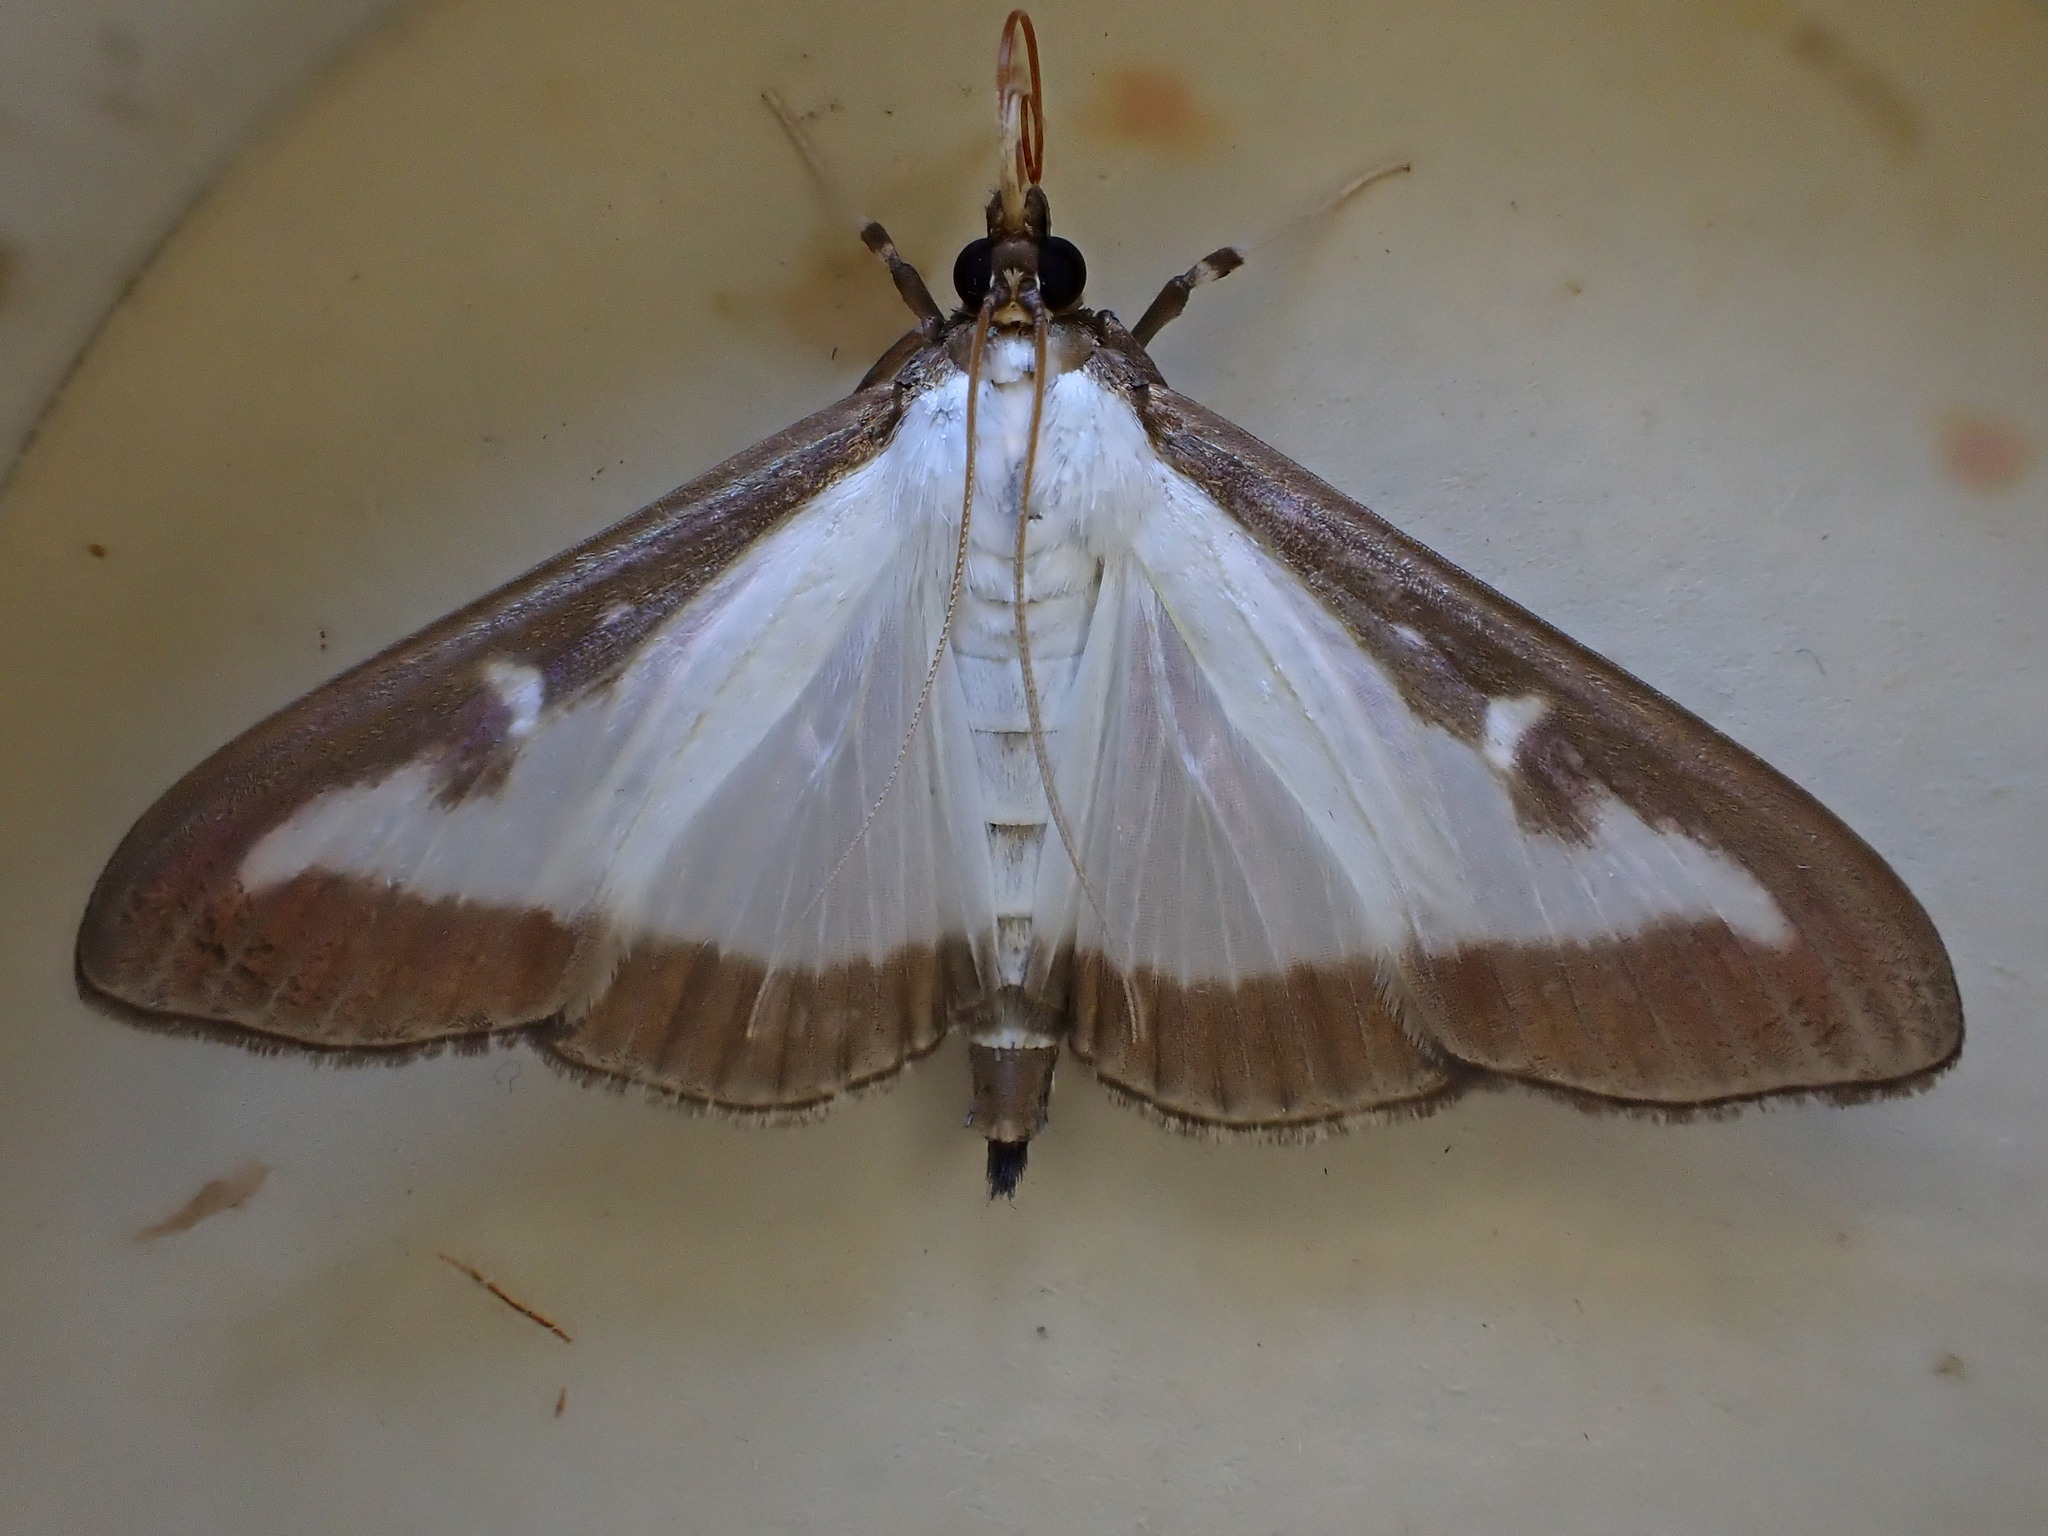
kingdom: Animalia
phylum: Arthropoda
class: Insecta
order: Lepidoptera
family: Crambidae
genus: Cydalima
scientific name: Cydalima perspectalis
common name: Box tree moth
